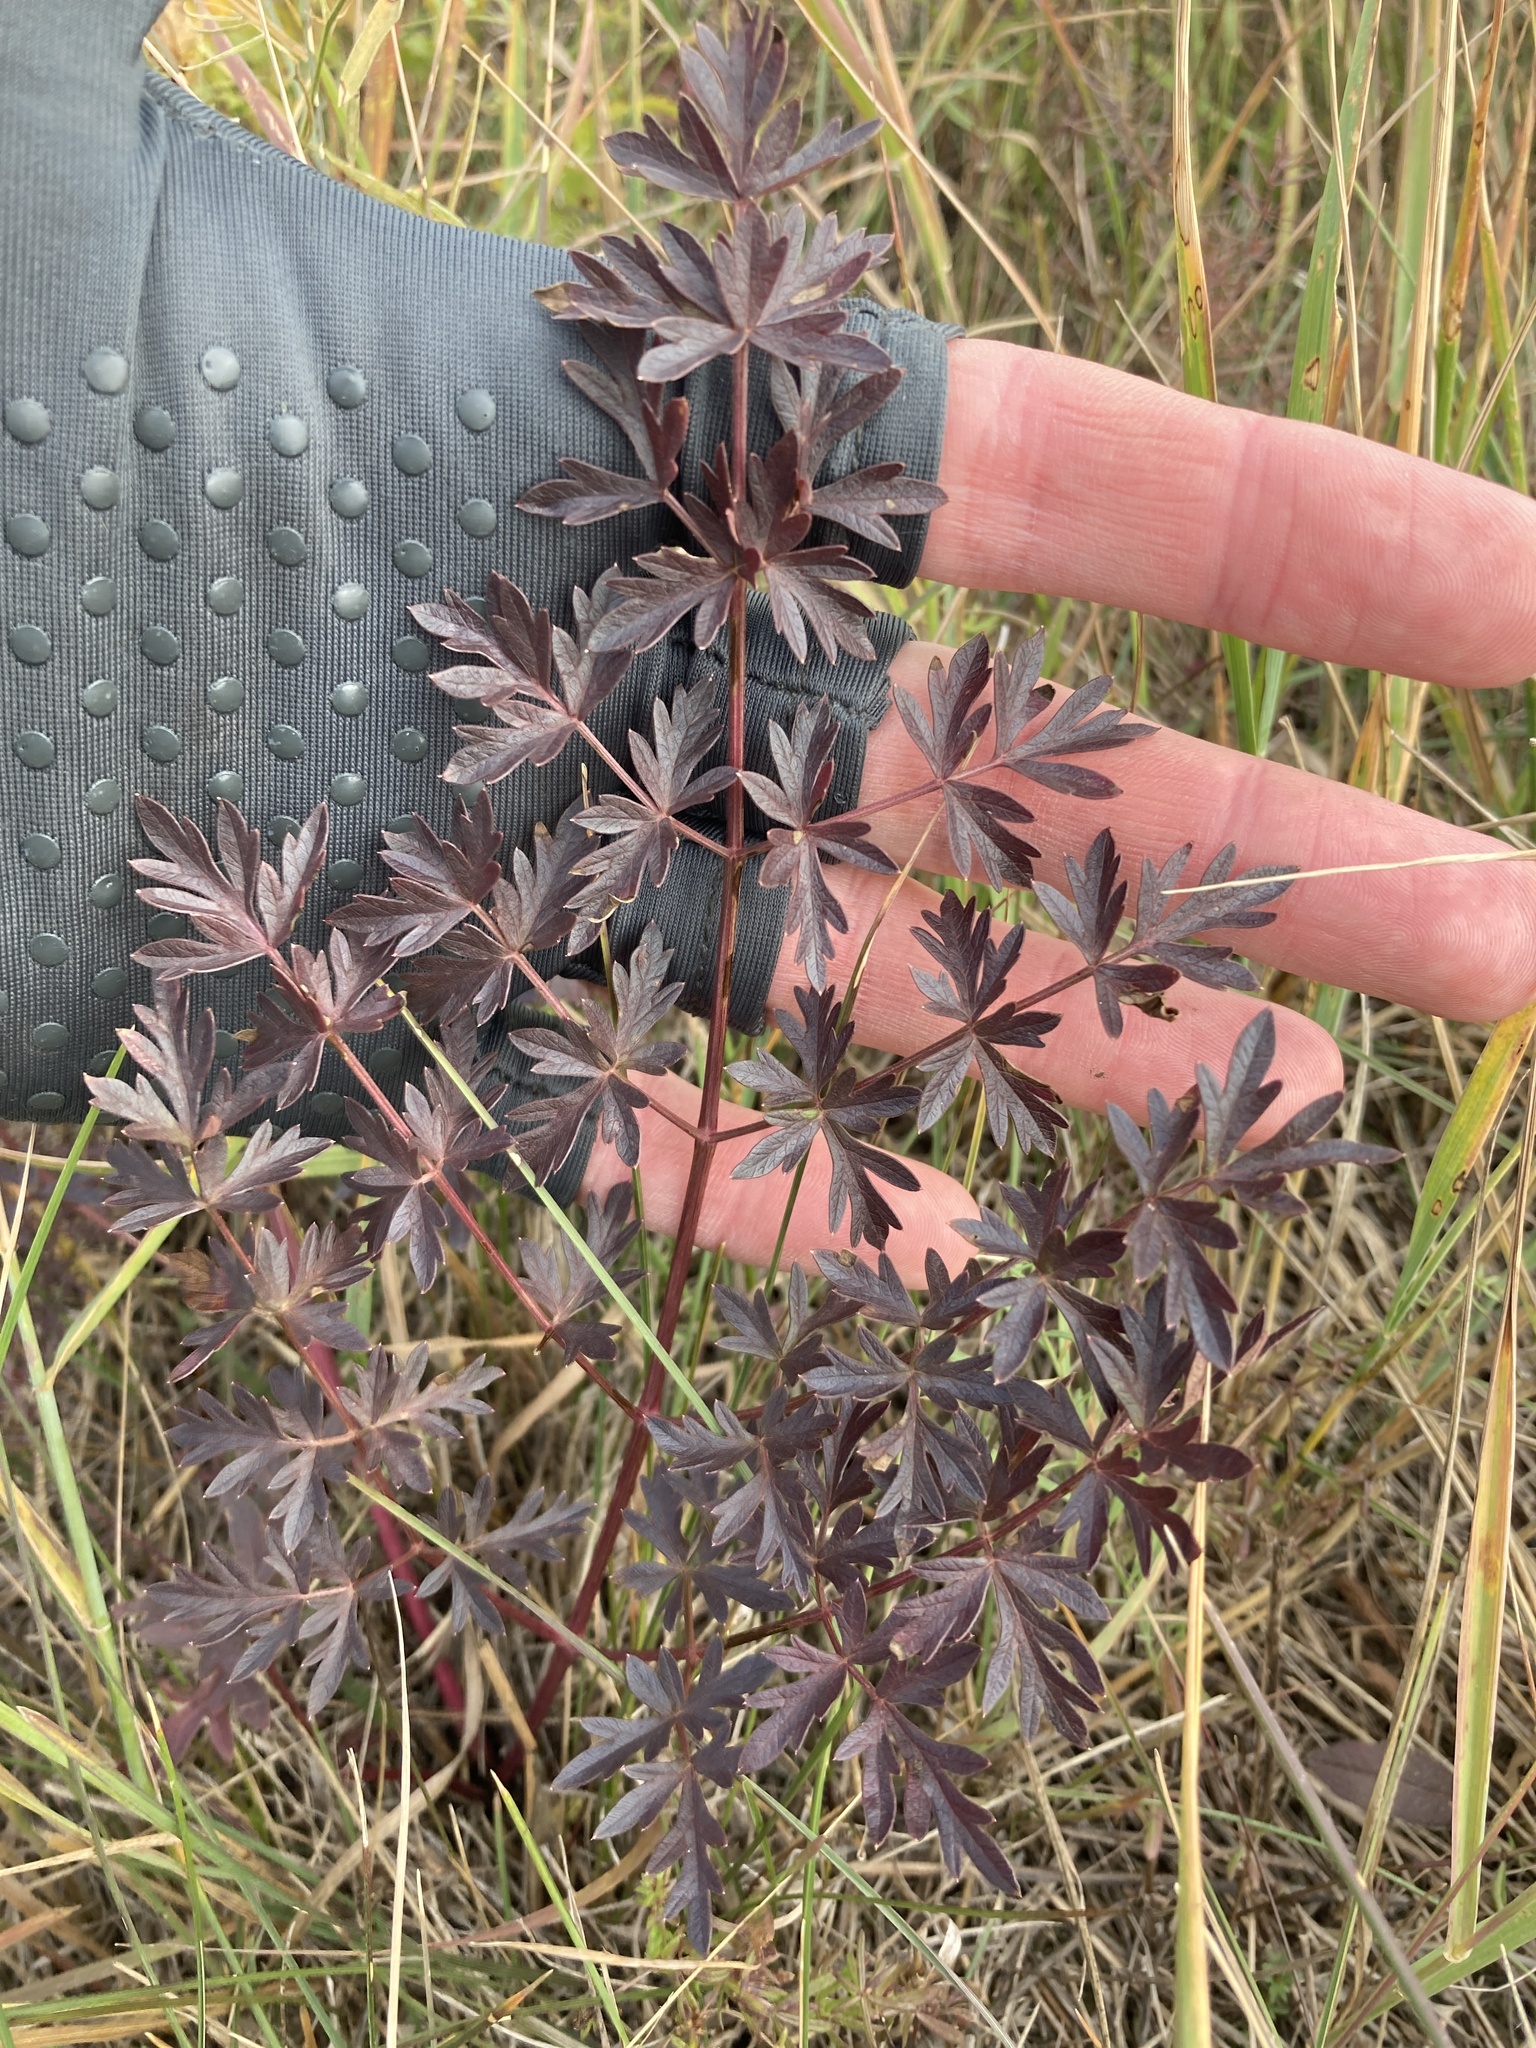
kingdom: Plantae
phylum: Tracheophyta
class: Magnoliopsida
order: Apiales
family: Apiaceae
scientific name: Apiaceae
